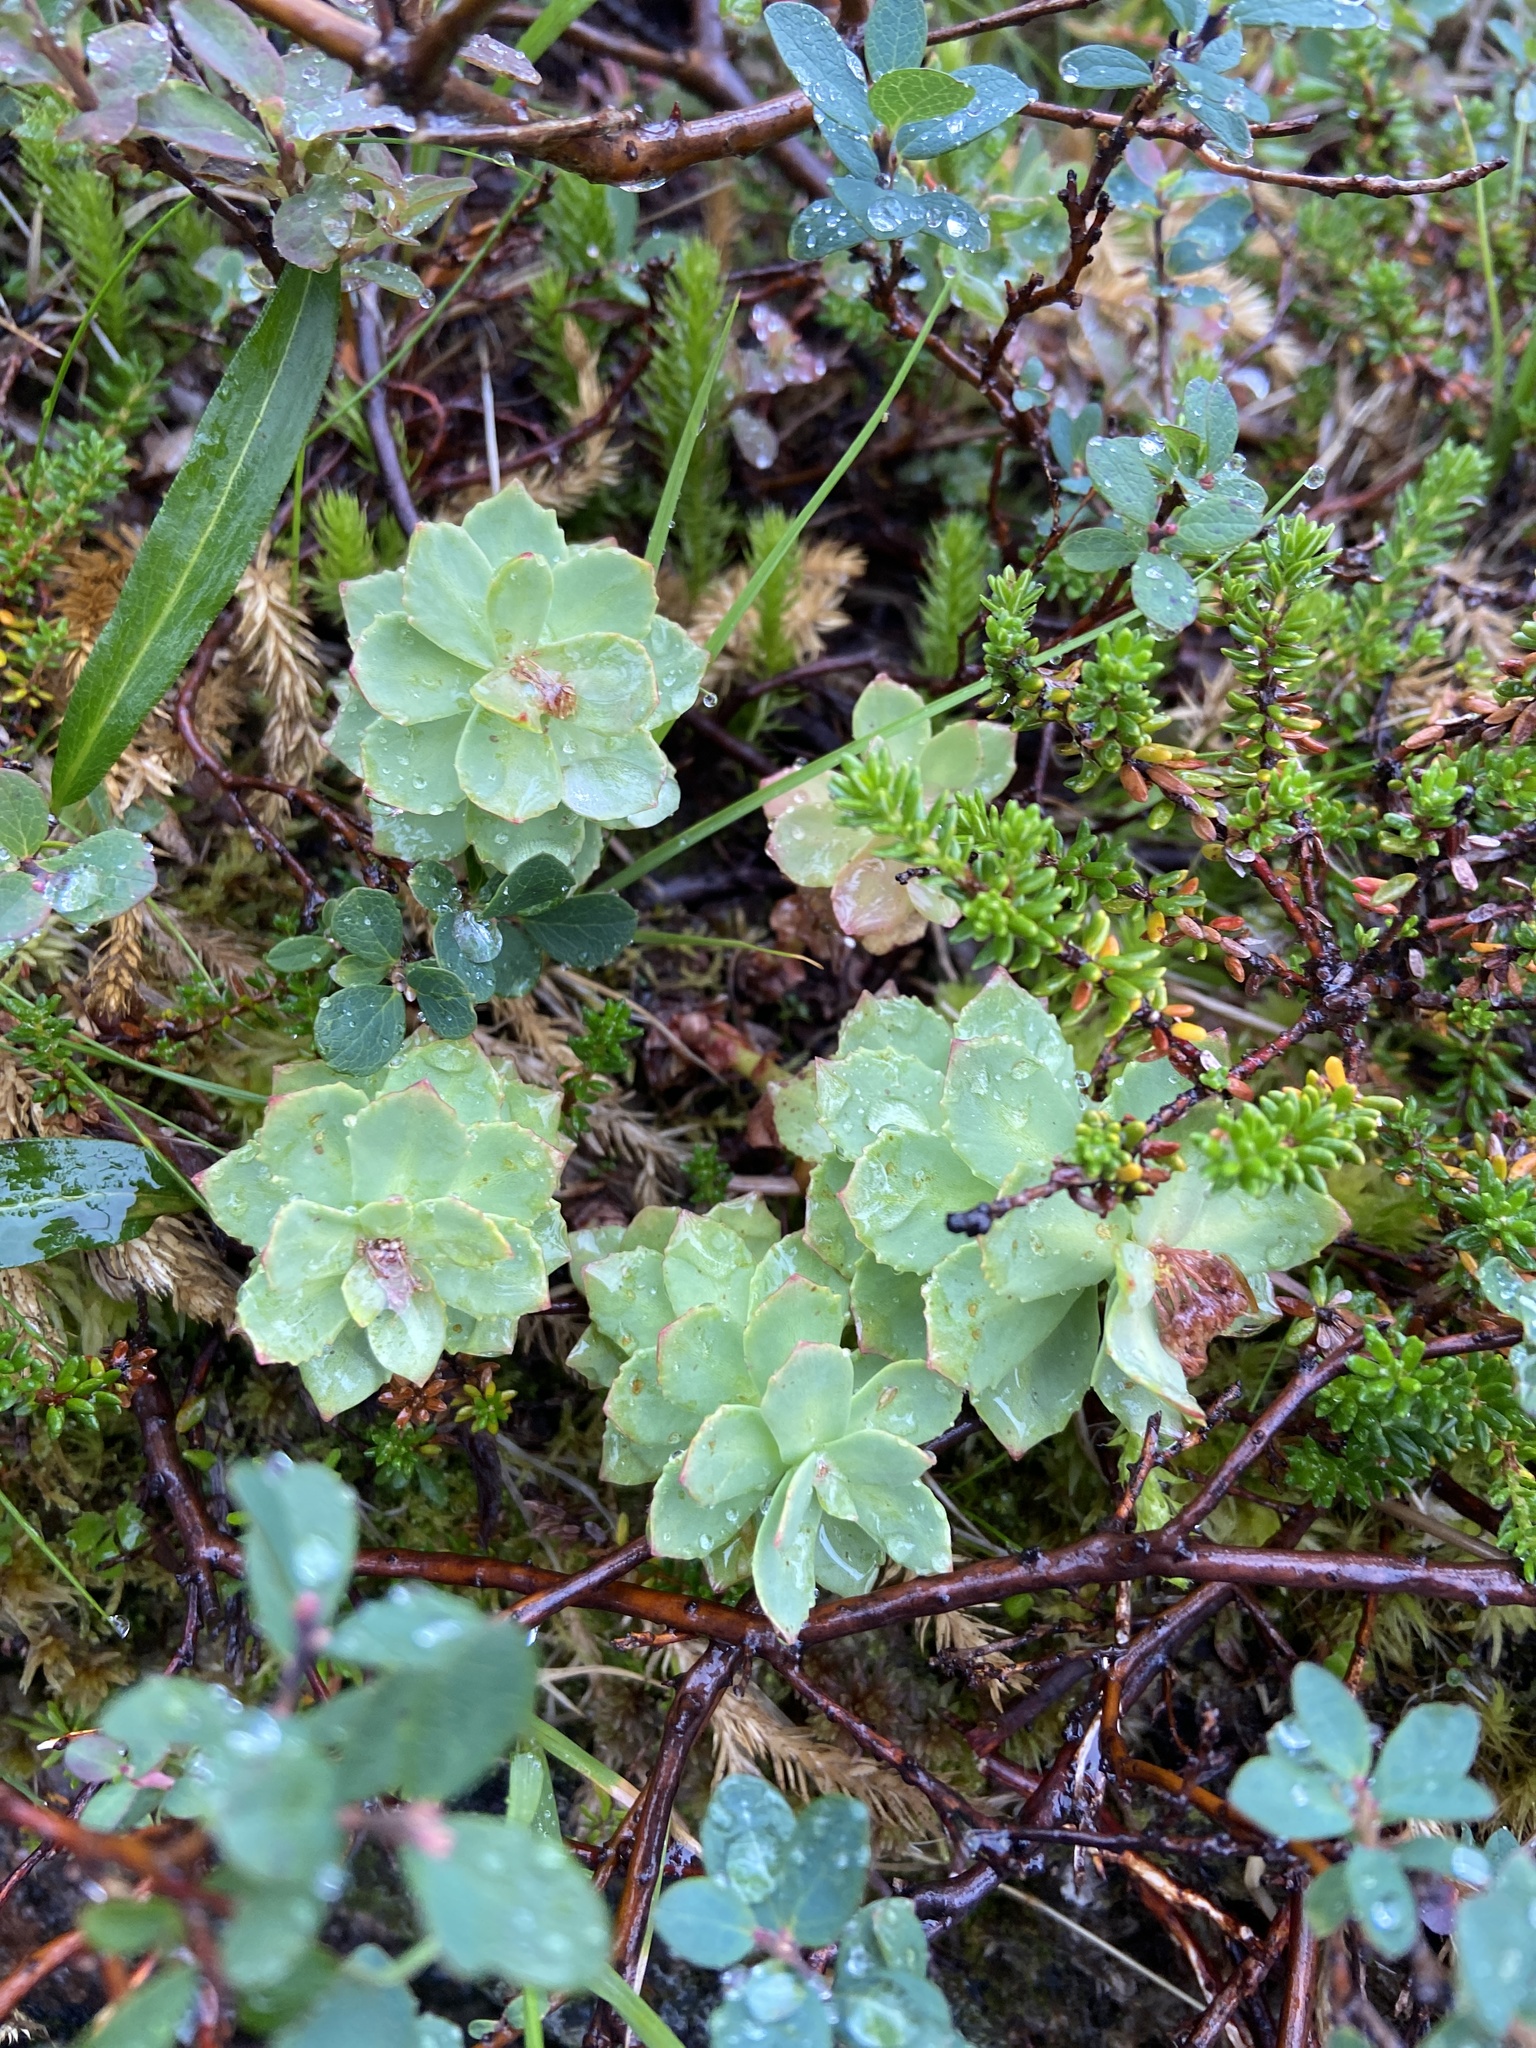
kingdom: Plantae
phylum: Tracheophyta
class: Magnoliopsida
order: Saxifragales
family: Crassulaceae
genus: Rhodiola
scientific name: Rhodiola rosea
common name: Roseroot
